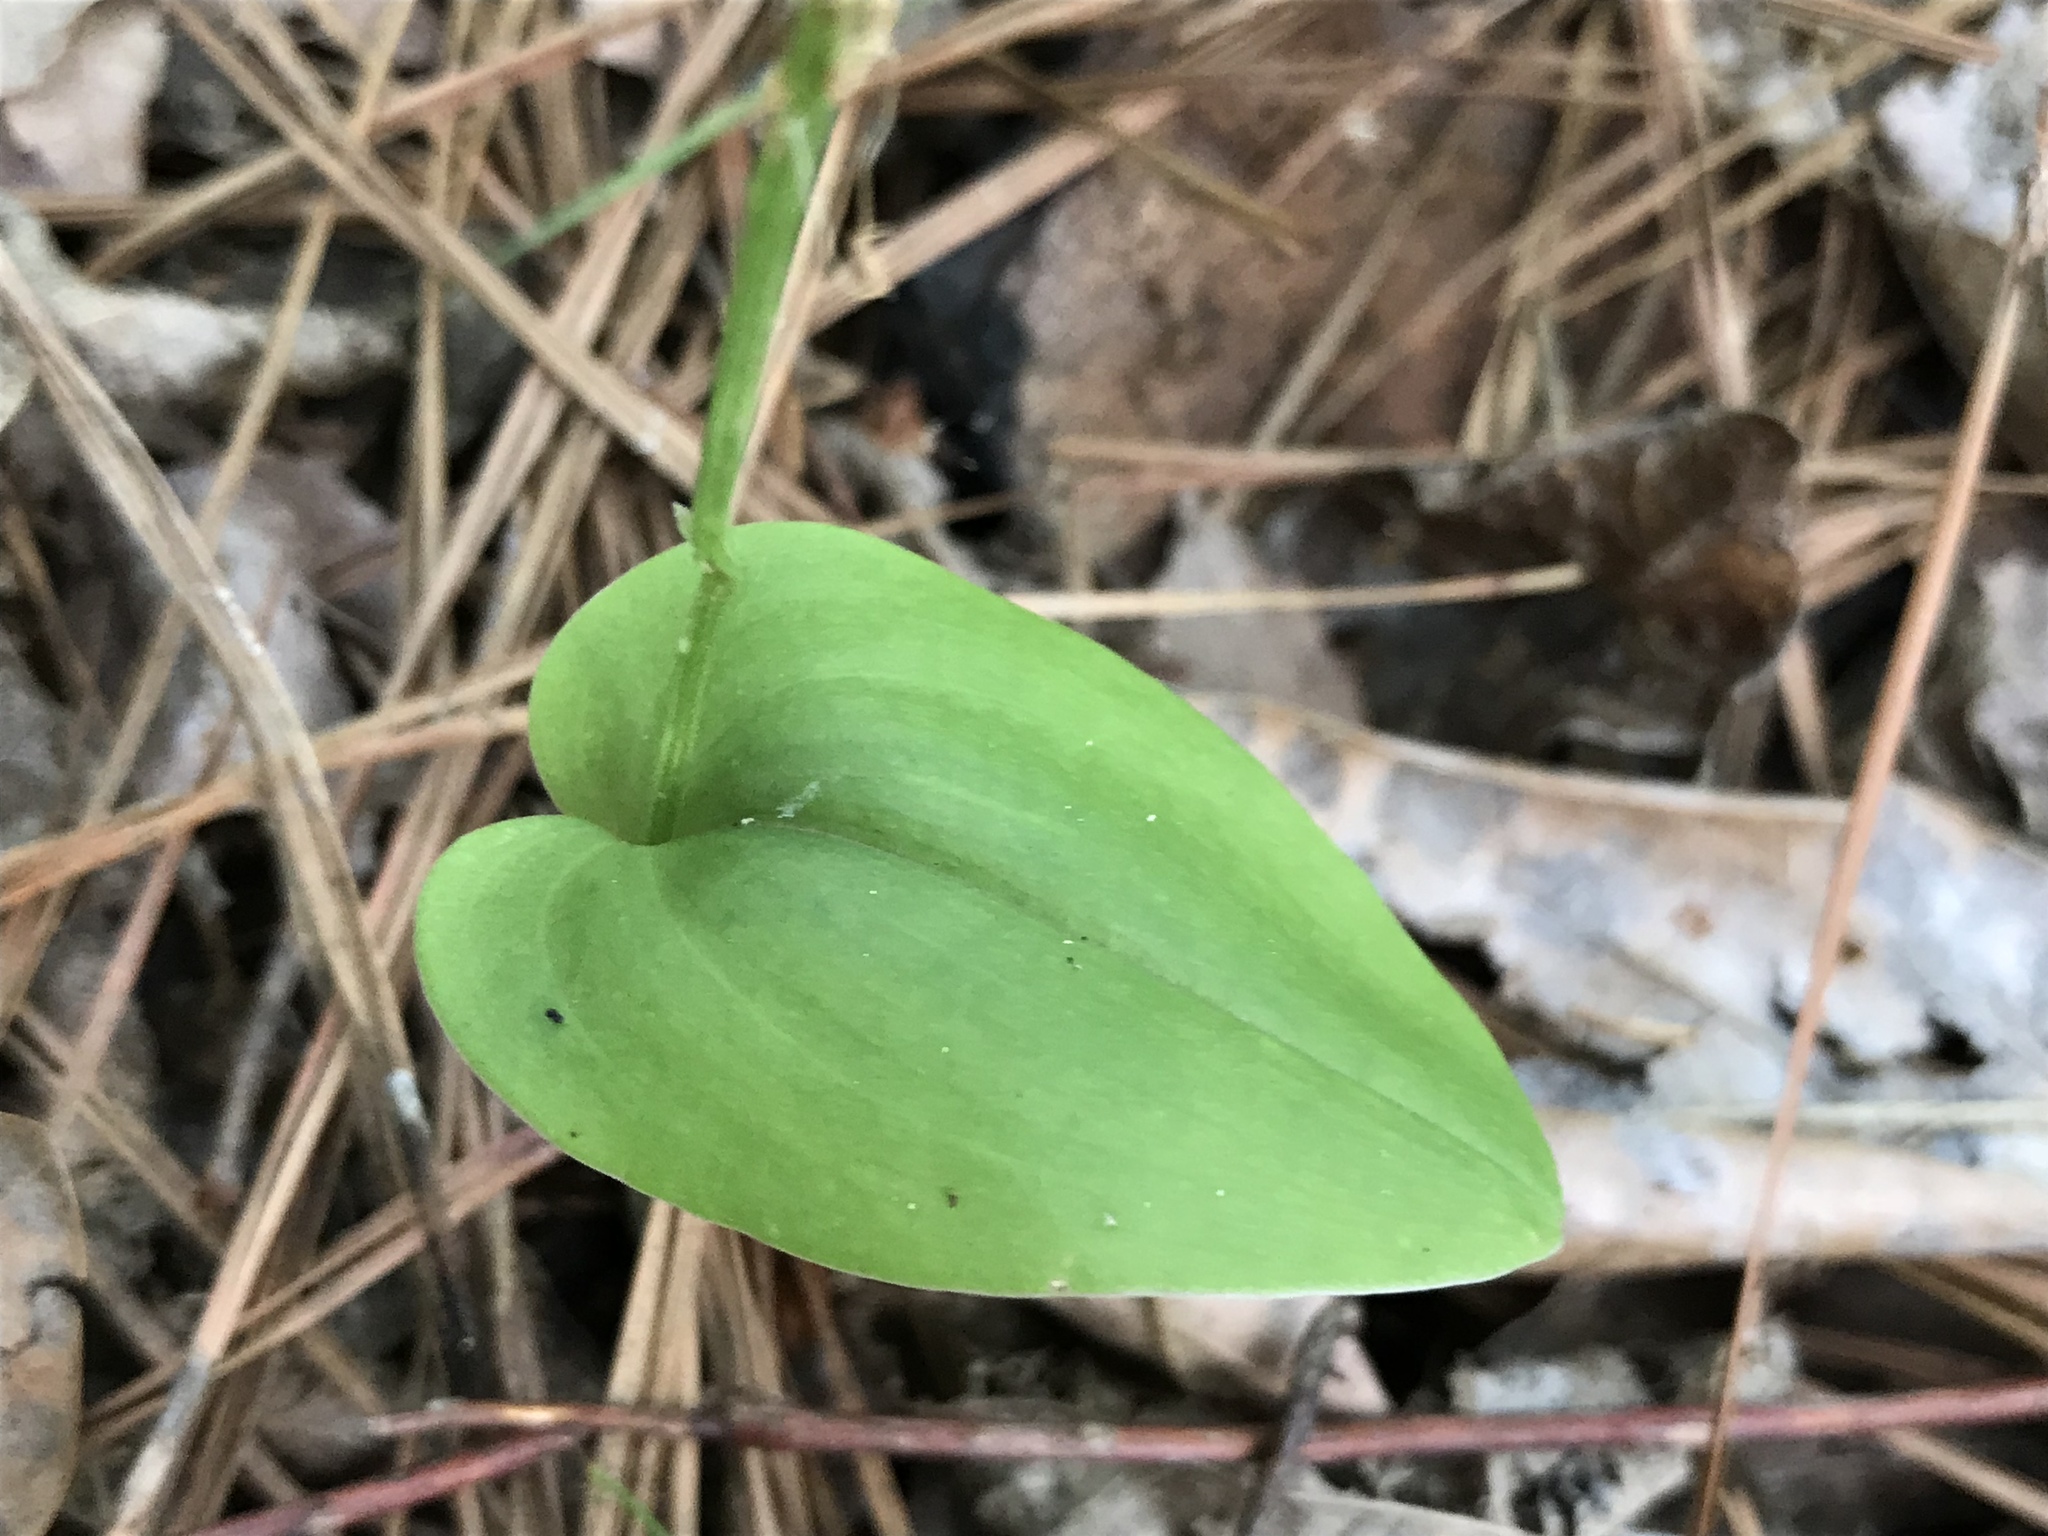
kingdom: Plantae
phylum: Tracheophyta
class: Liliopsida
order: Asparagales
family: Orchidaceae
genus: Malaxis
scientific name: Malaxis unifolia
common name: Green adder's-mouth
